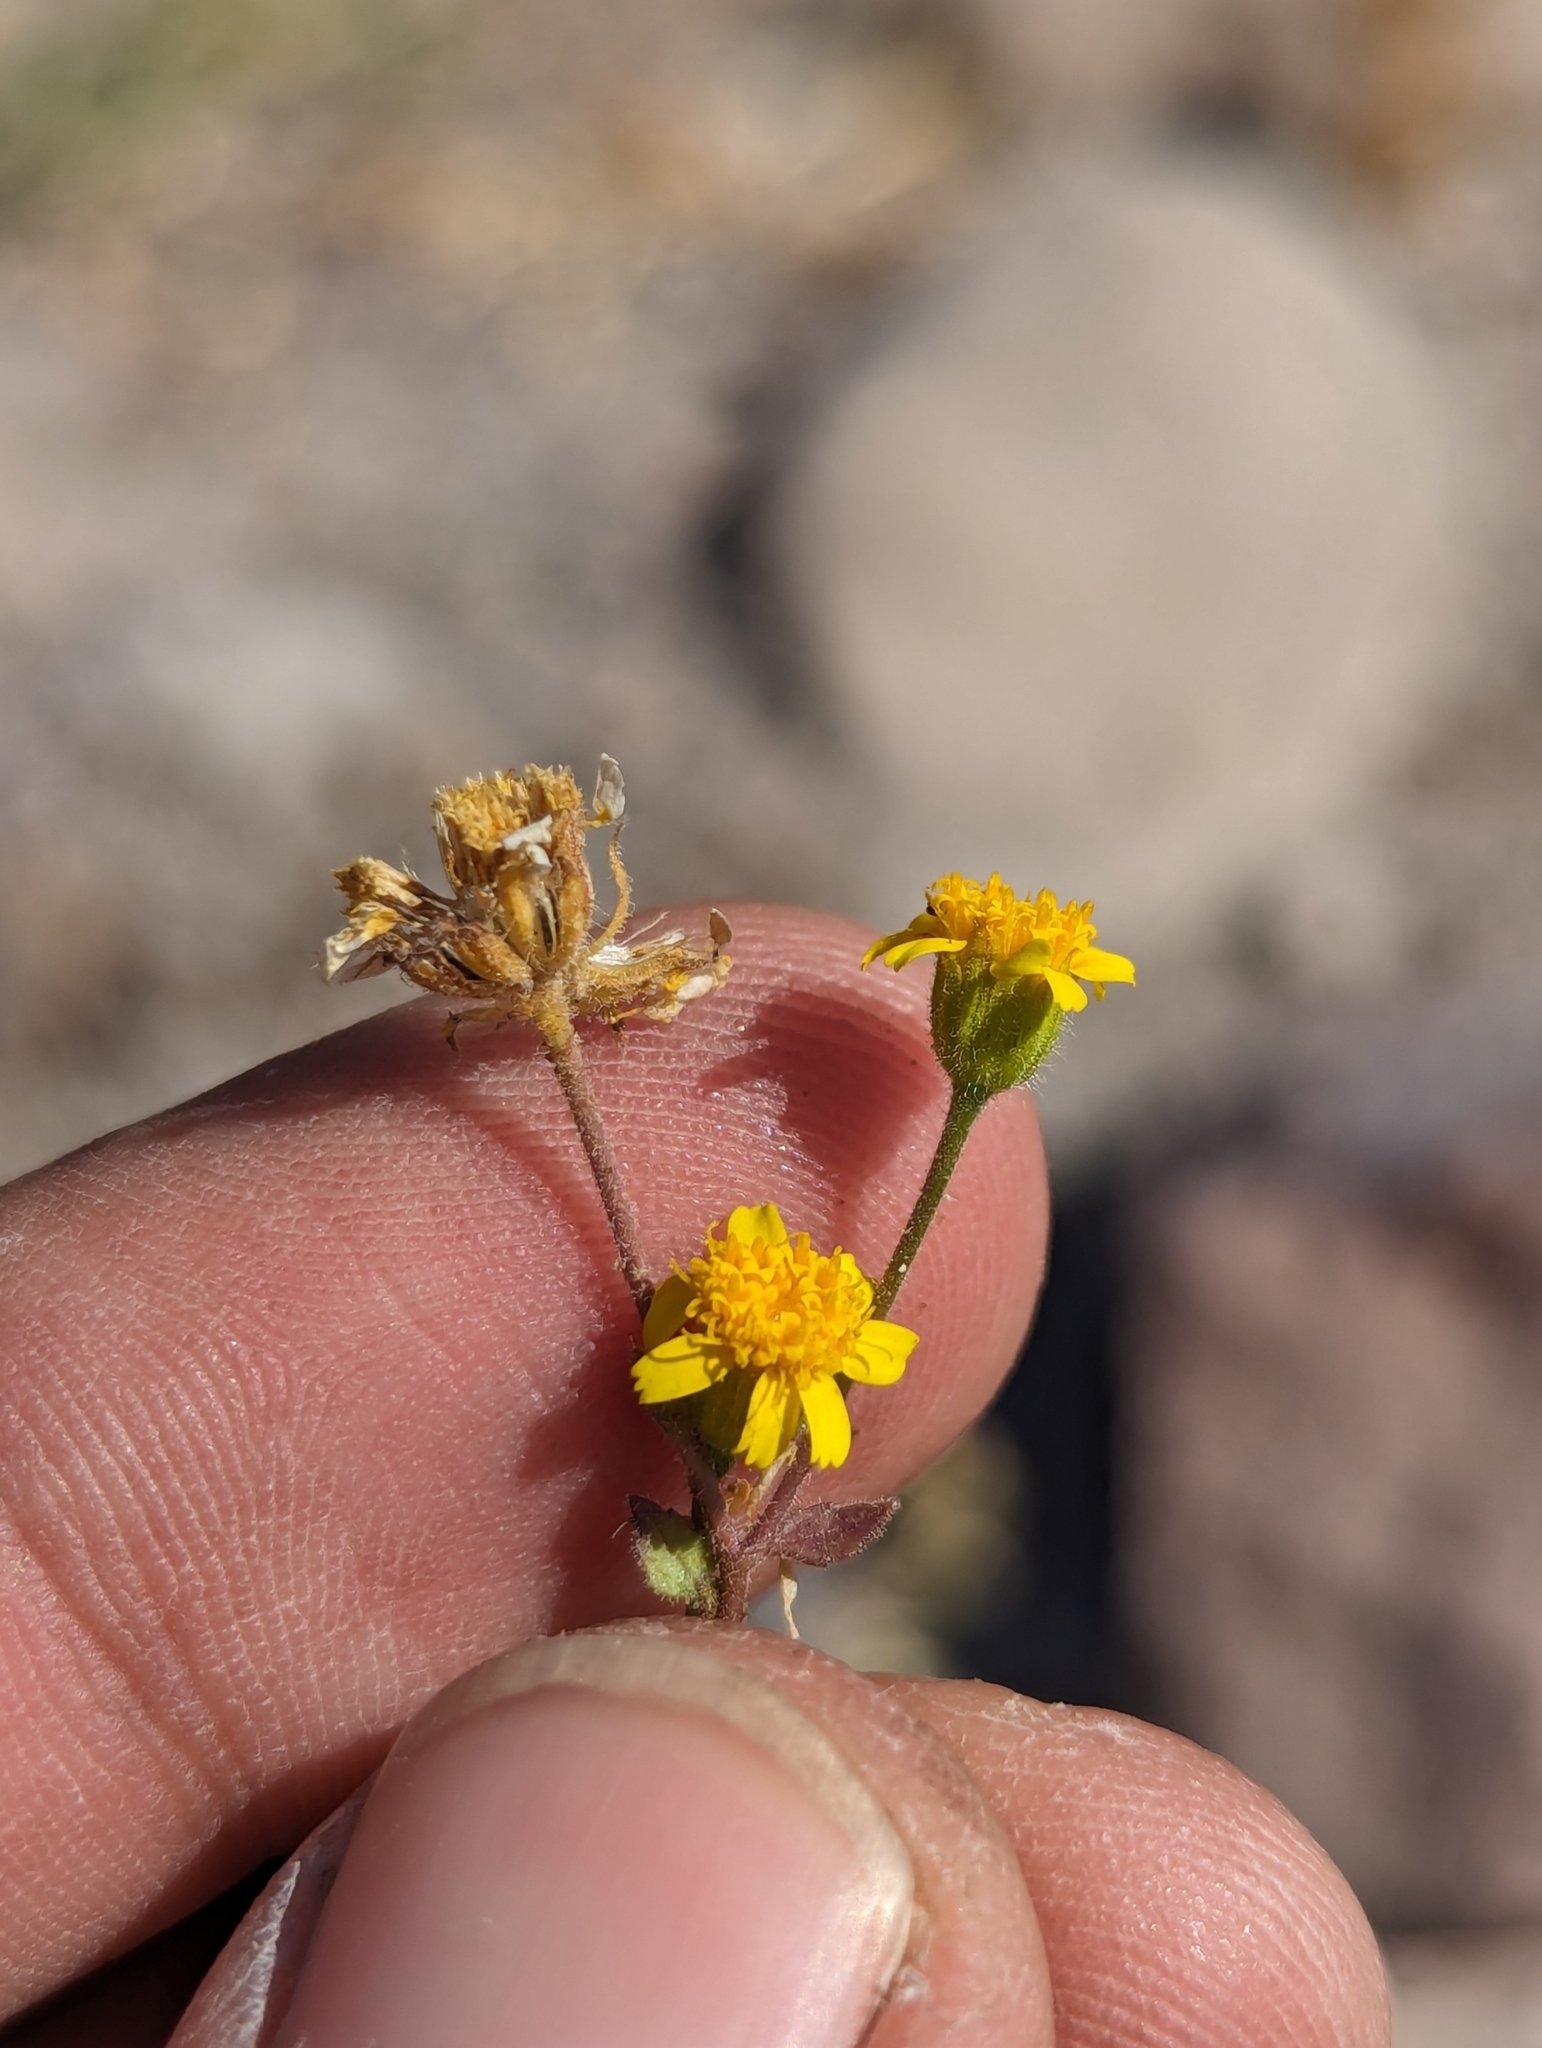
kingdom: Plantae
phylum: Tracheophyta
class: Magnoliopsida
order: Asterales
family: Asteraceae
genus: Perityle
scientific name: Perityle californica
